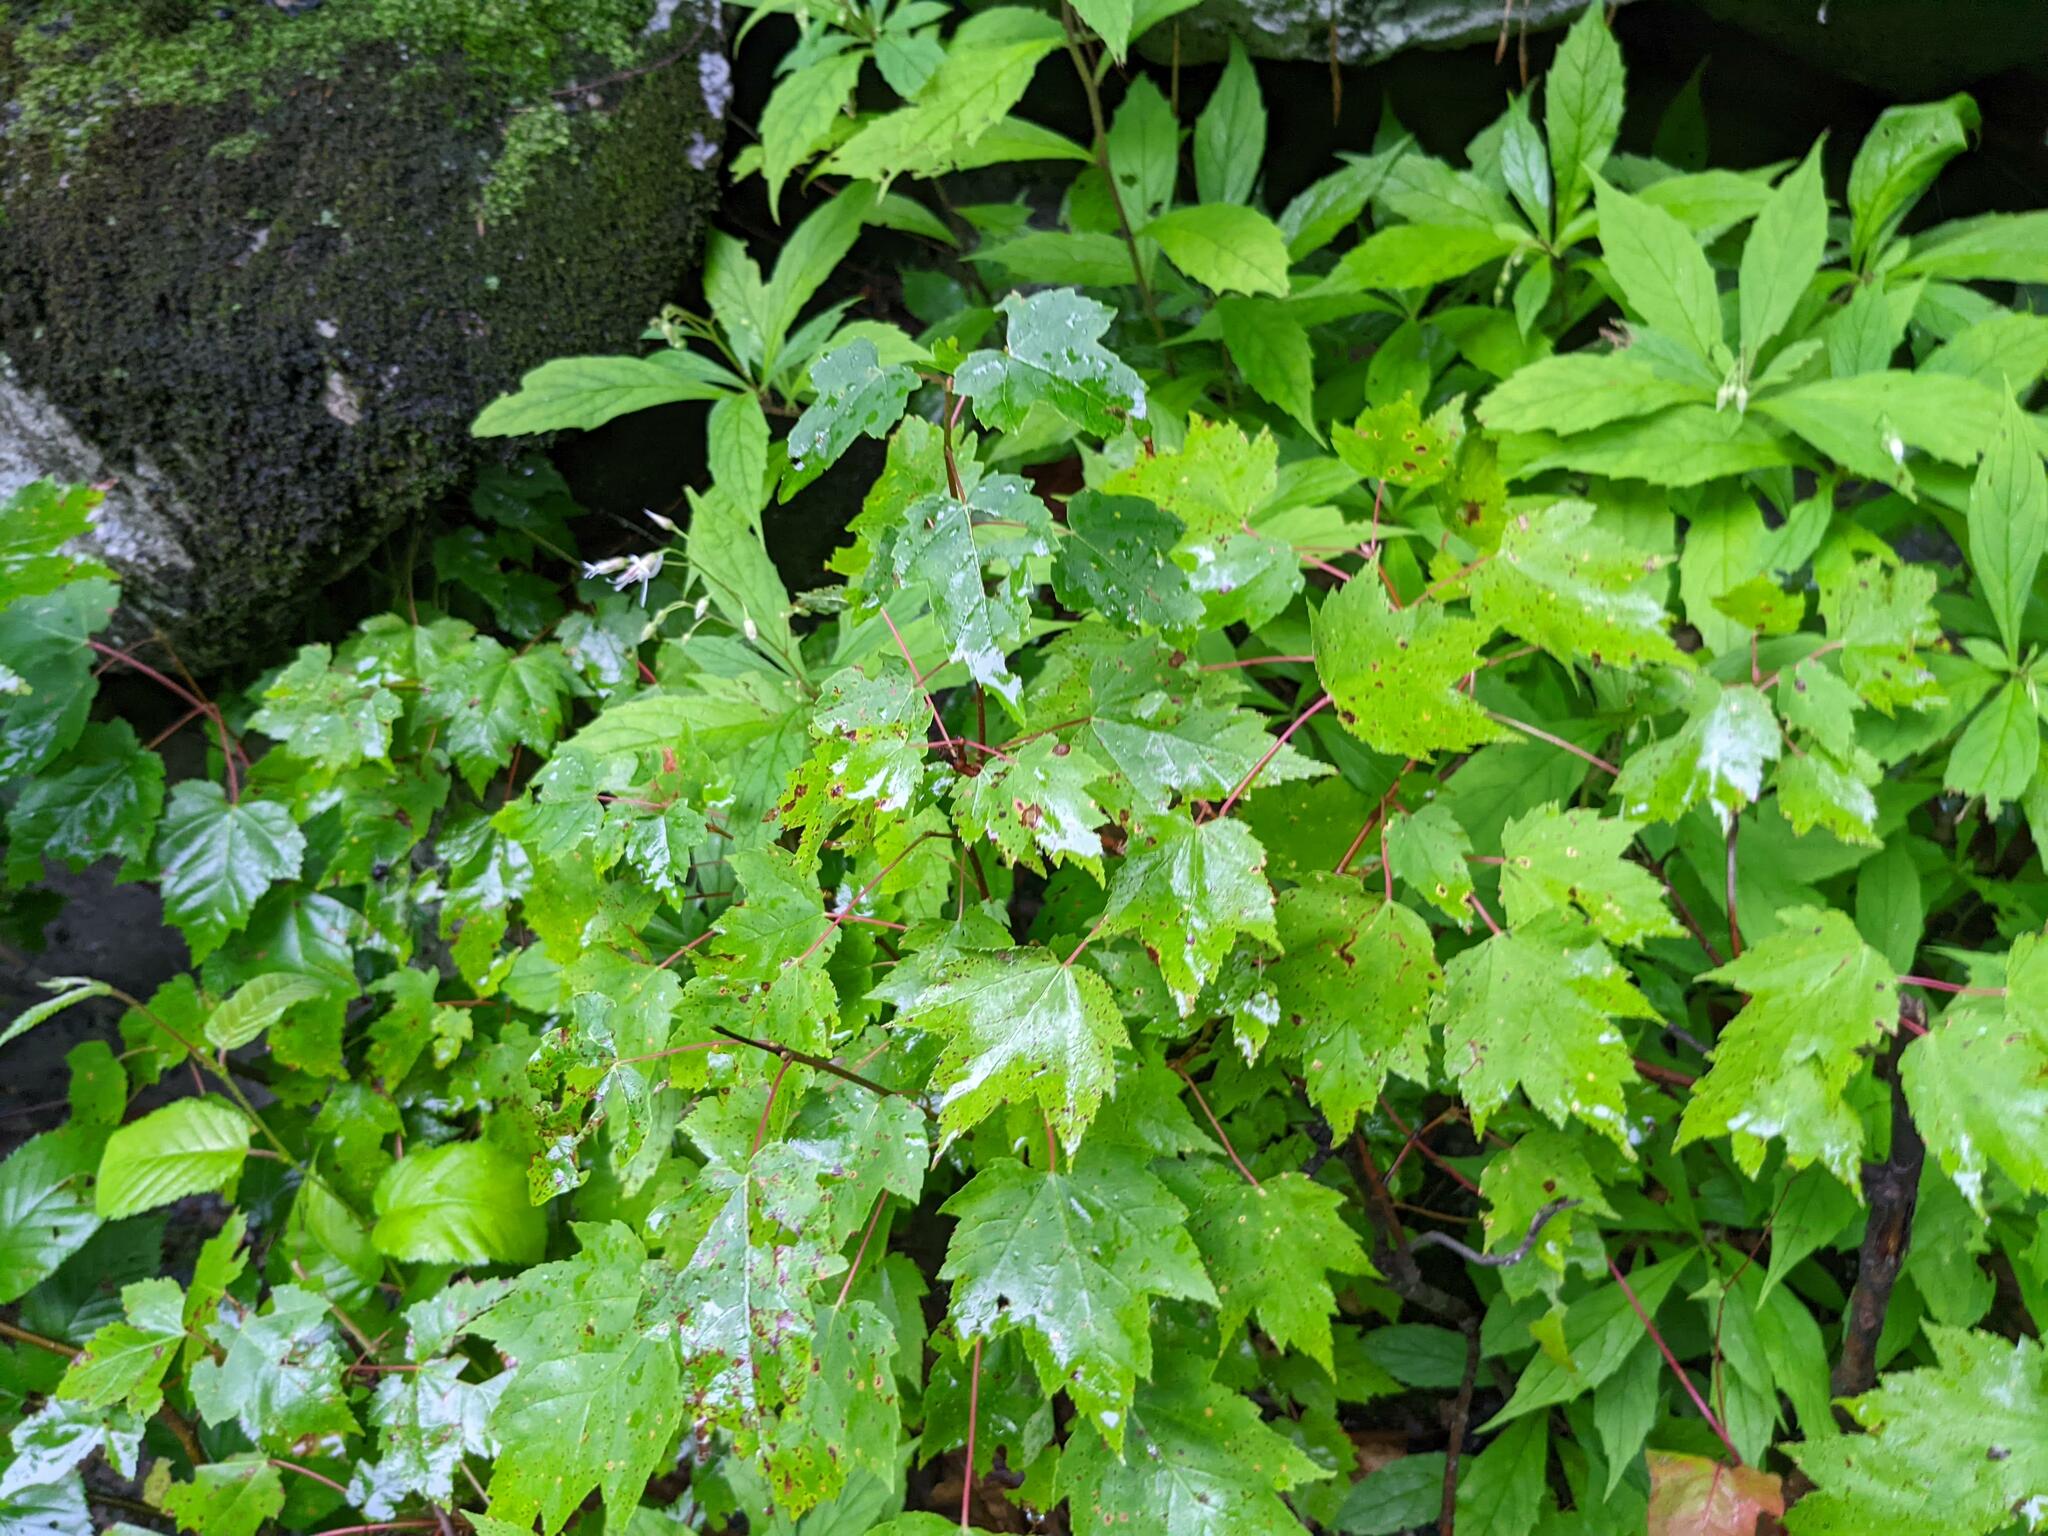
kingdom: Plantae
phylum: Tracheophyta
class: Magnoliopsida
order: Sapindales
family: Sapindaceae
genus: Acer
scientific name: Acer rubrum
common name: Red maple
